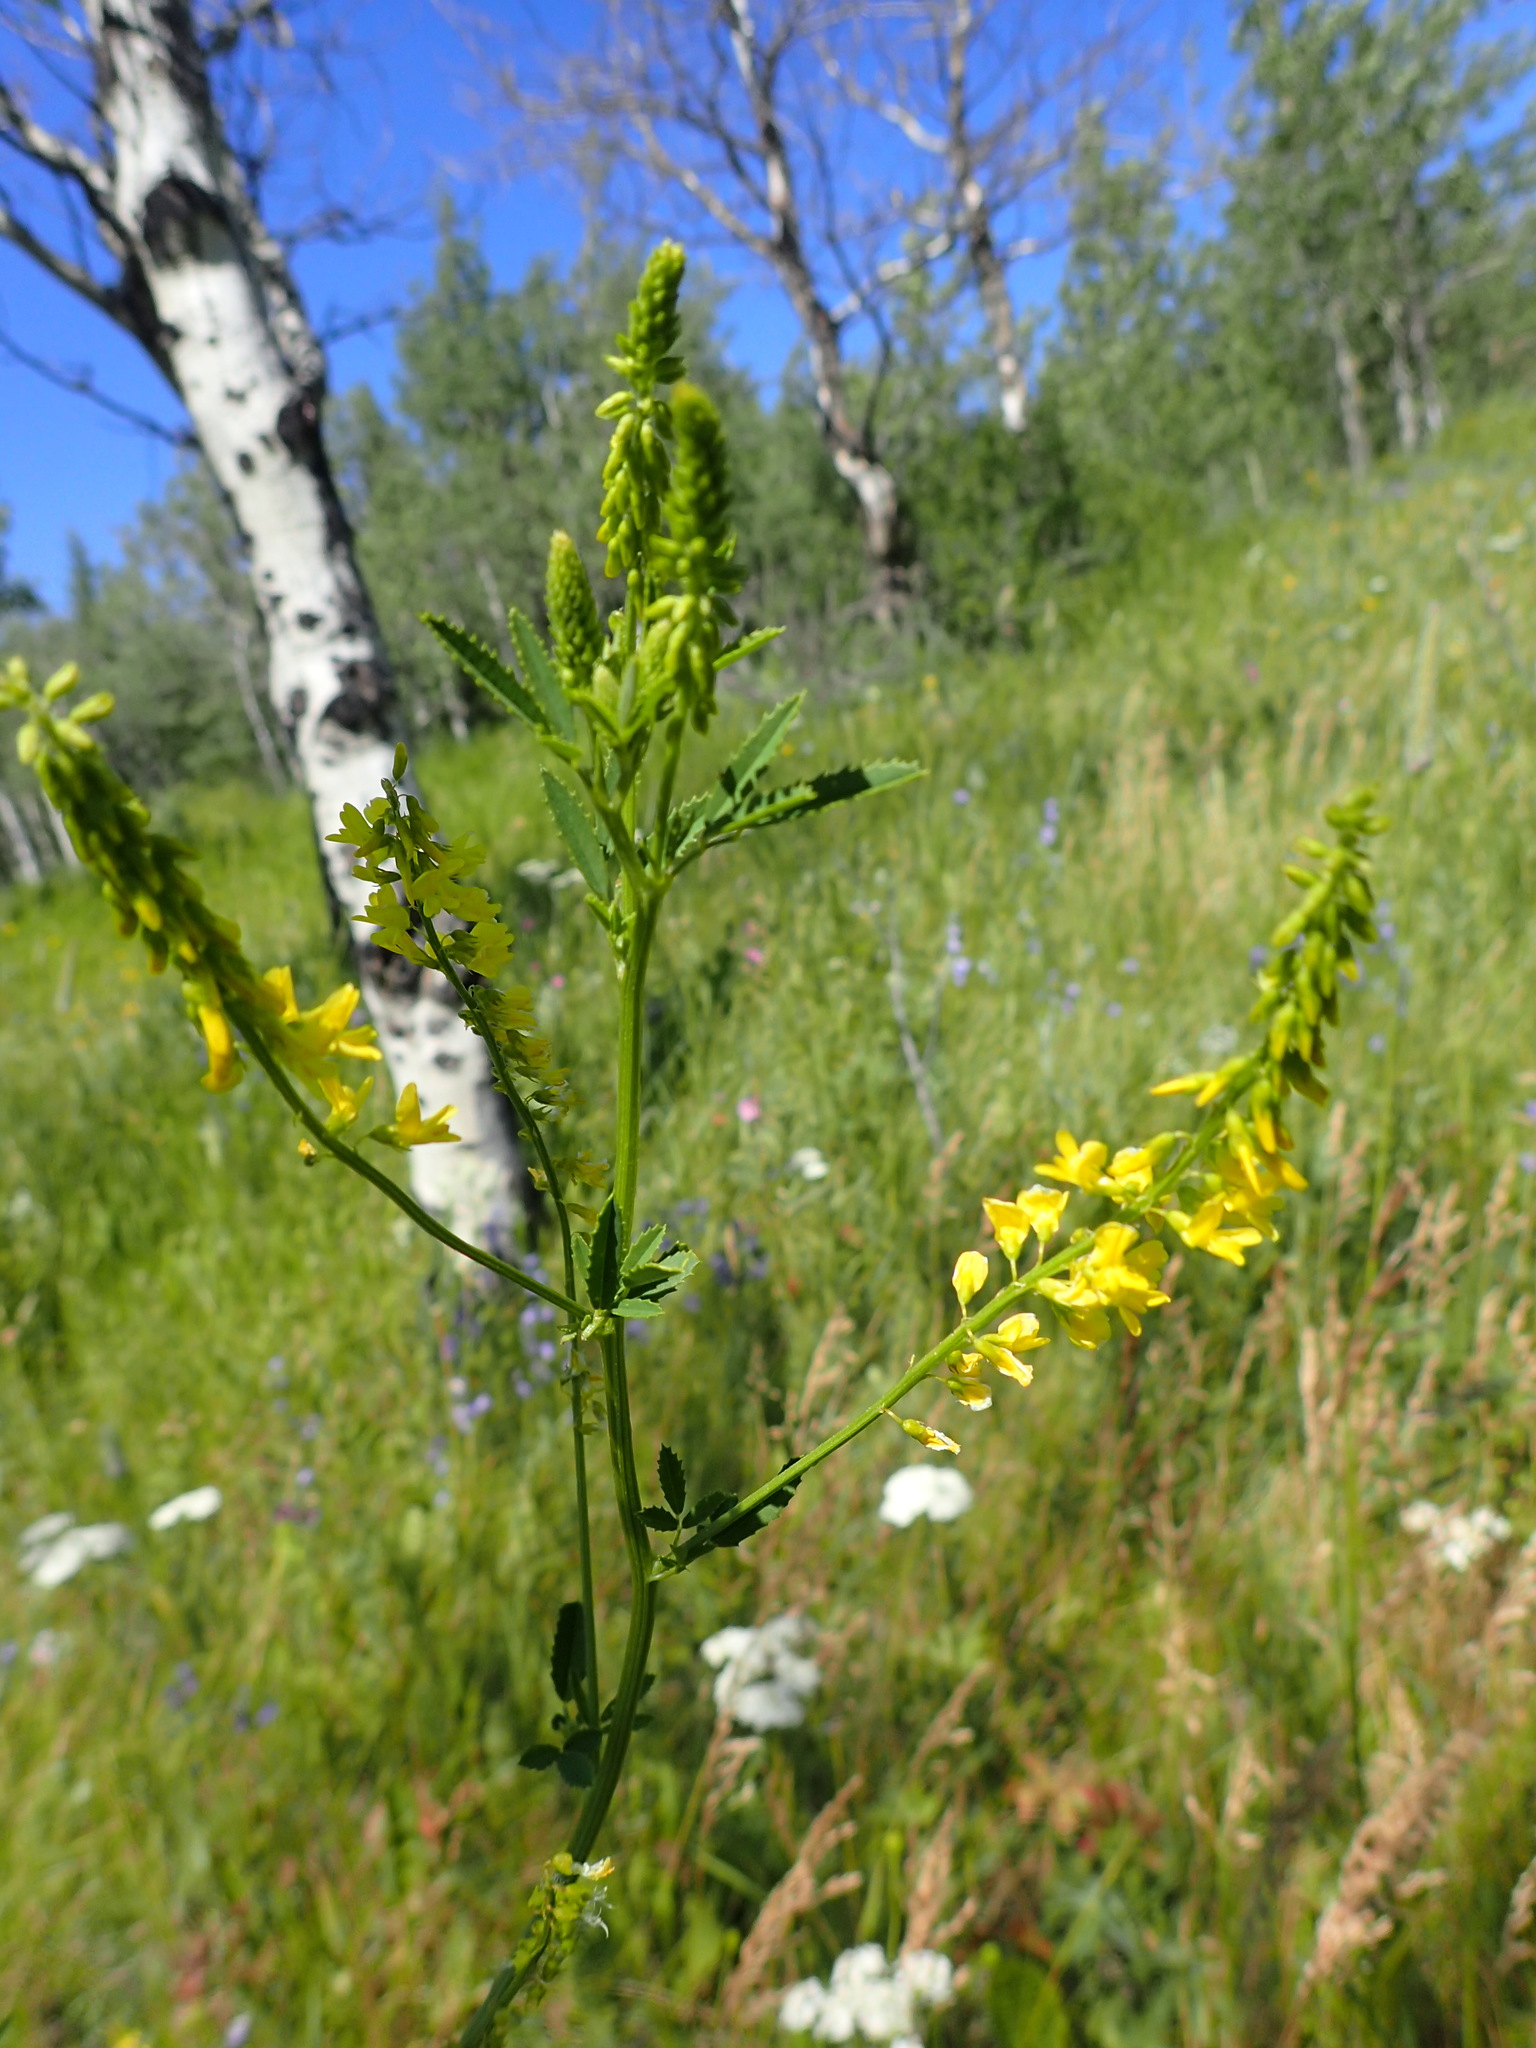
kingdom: Plantae
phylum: Tracheophyta
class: Magnoliopsida
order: Fabales
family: Fabaceae
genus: Melilotus
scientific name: Melilotus officinalis
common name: Sweetclover
